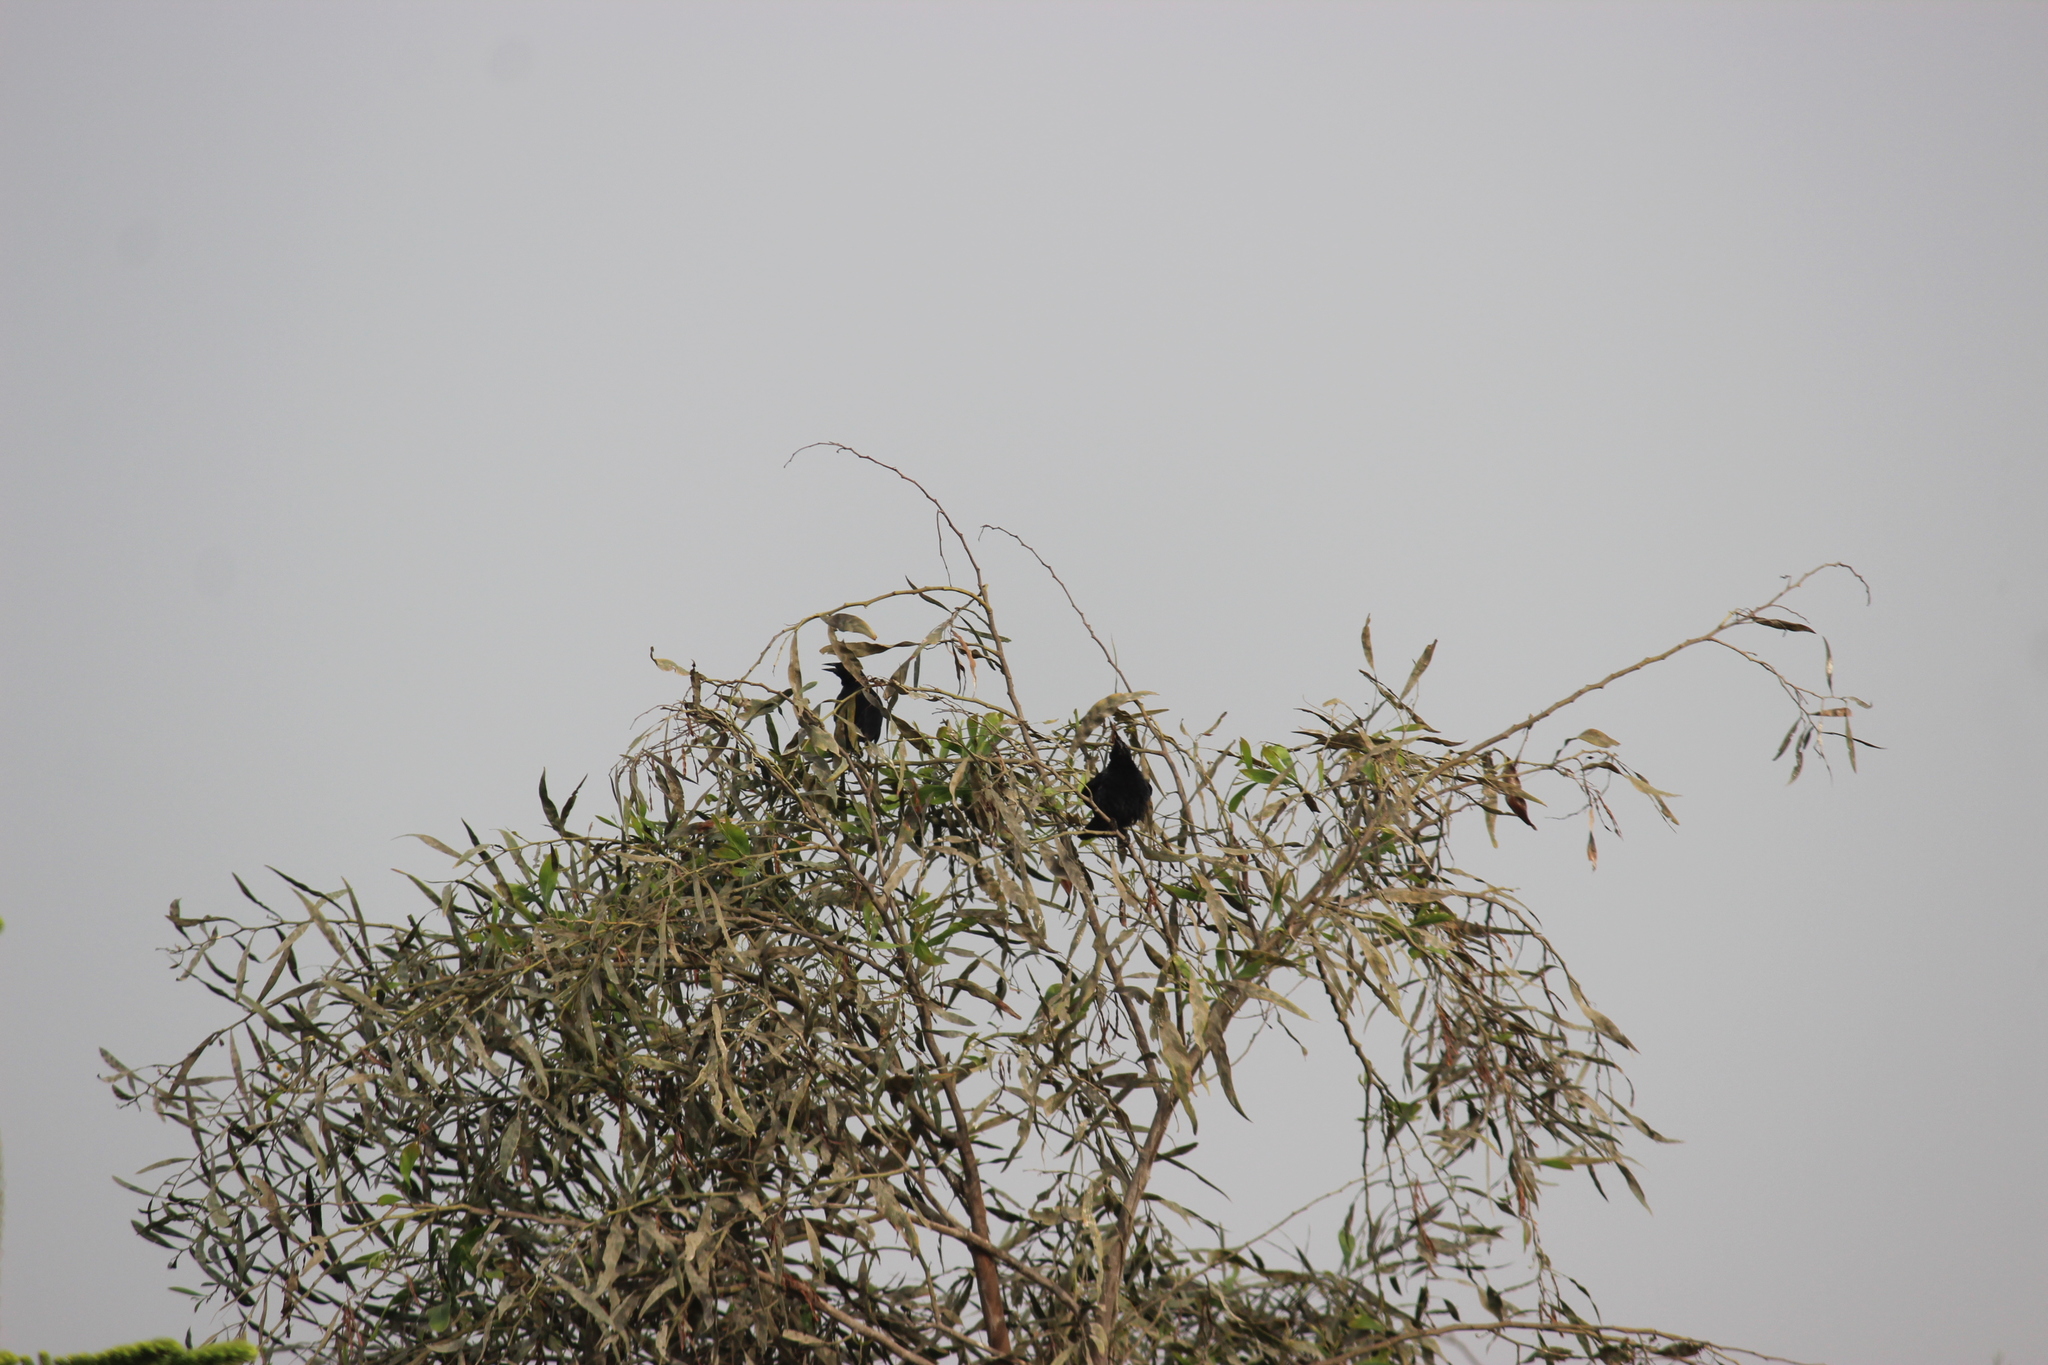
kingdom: Animalia
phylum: Chordata
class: Aves
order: Passeriformes
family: Icteridae
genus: Dives
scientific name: Dives warczewiczi
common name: Scrub blackbird
